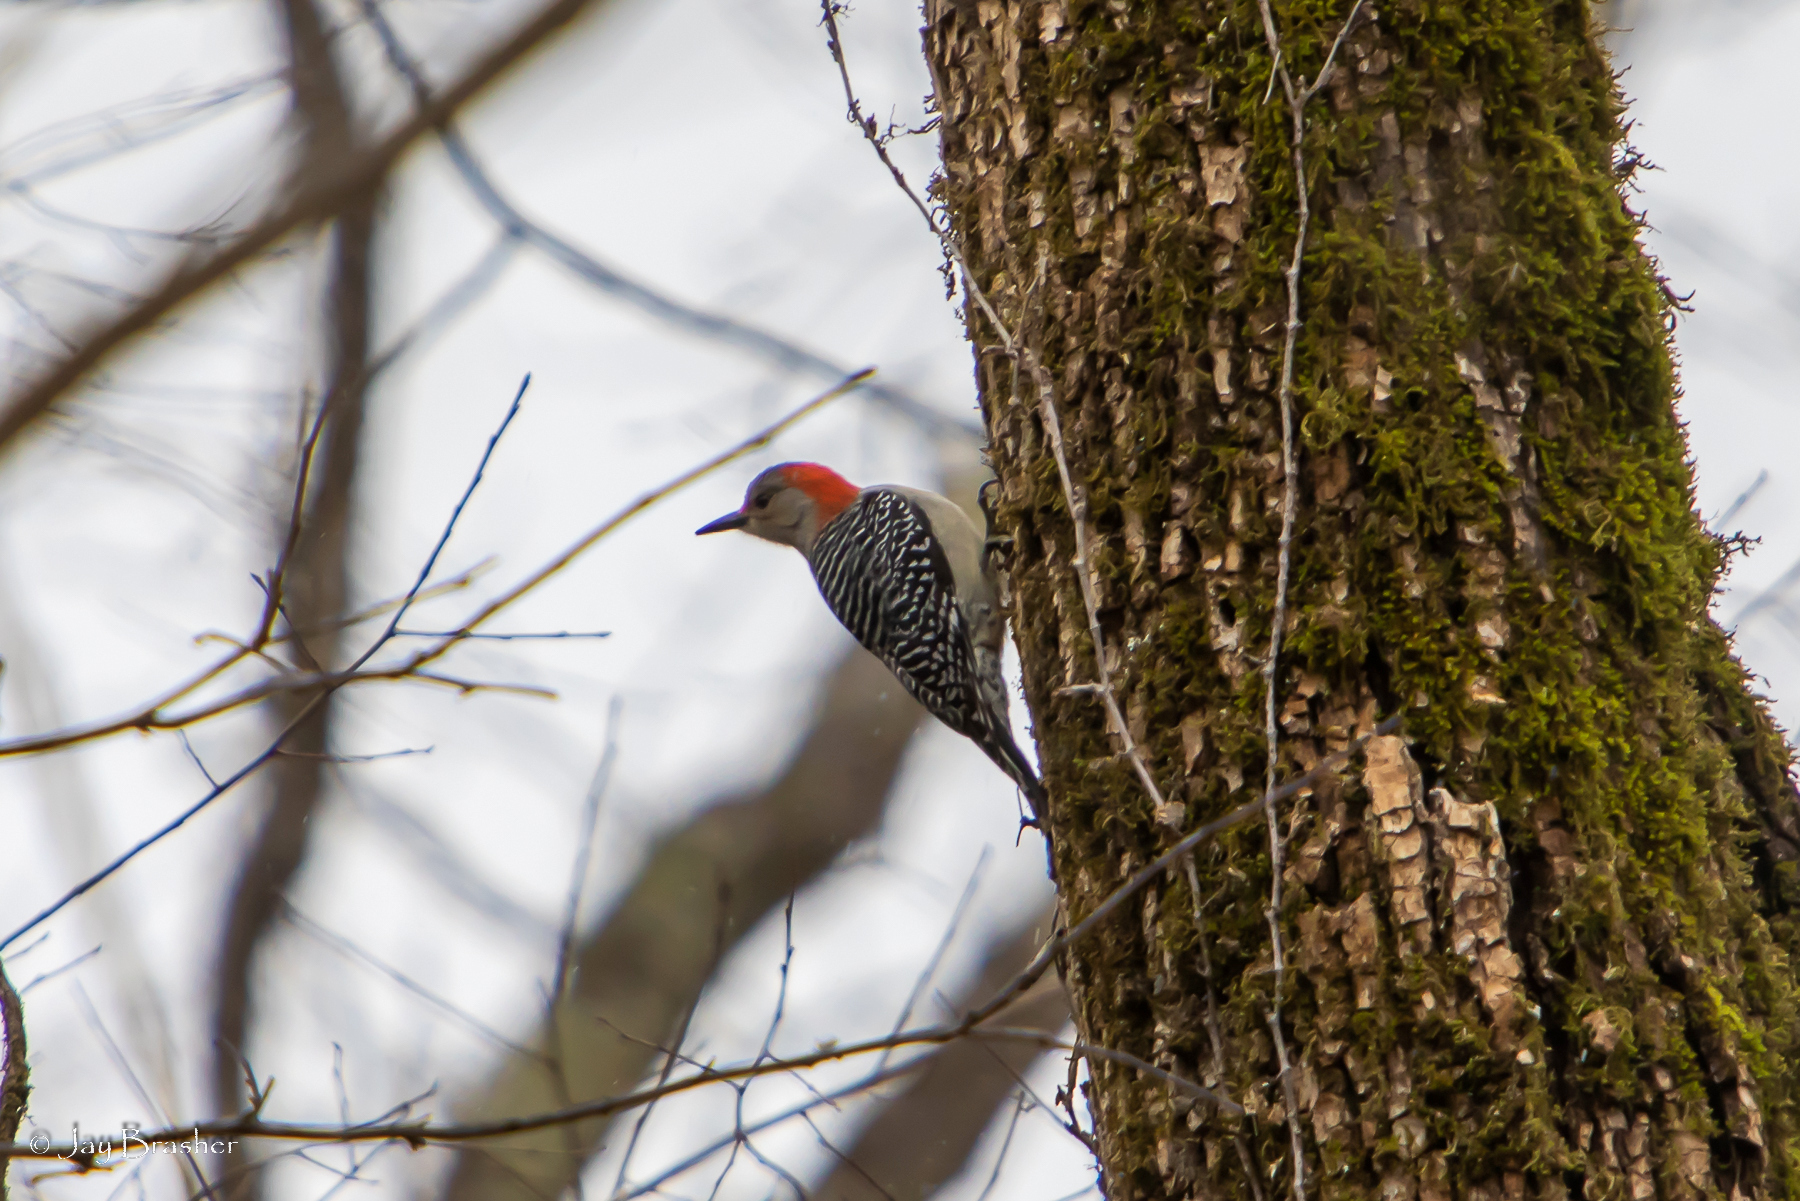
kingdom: Animalia
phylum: Chordata
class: Aves
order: Piciformes
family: Picidae
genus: Melanerpes
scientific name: Melanerpes carolinus
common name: Red-bellied woodpecker
